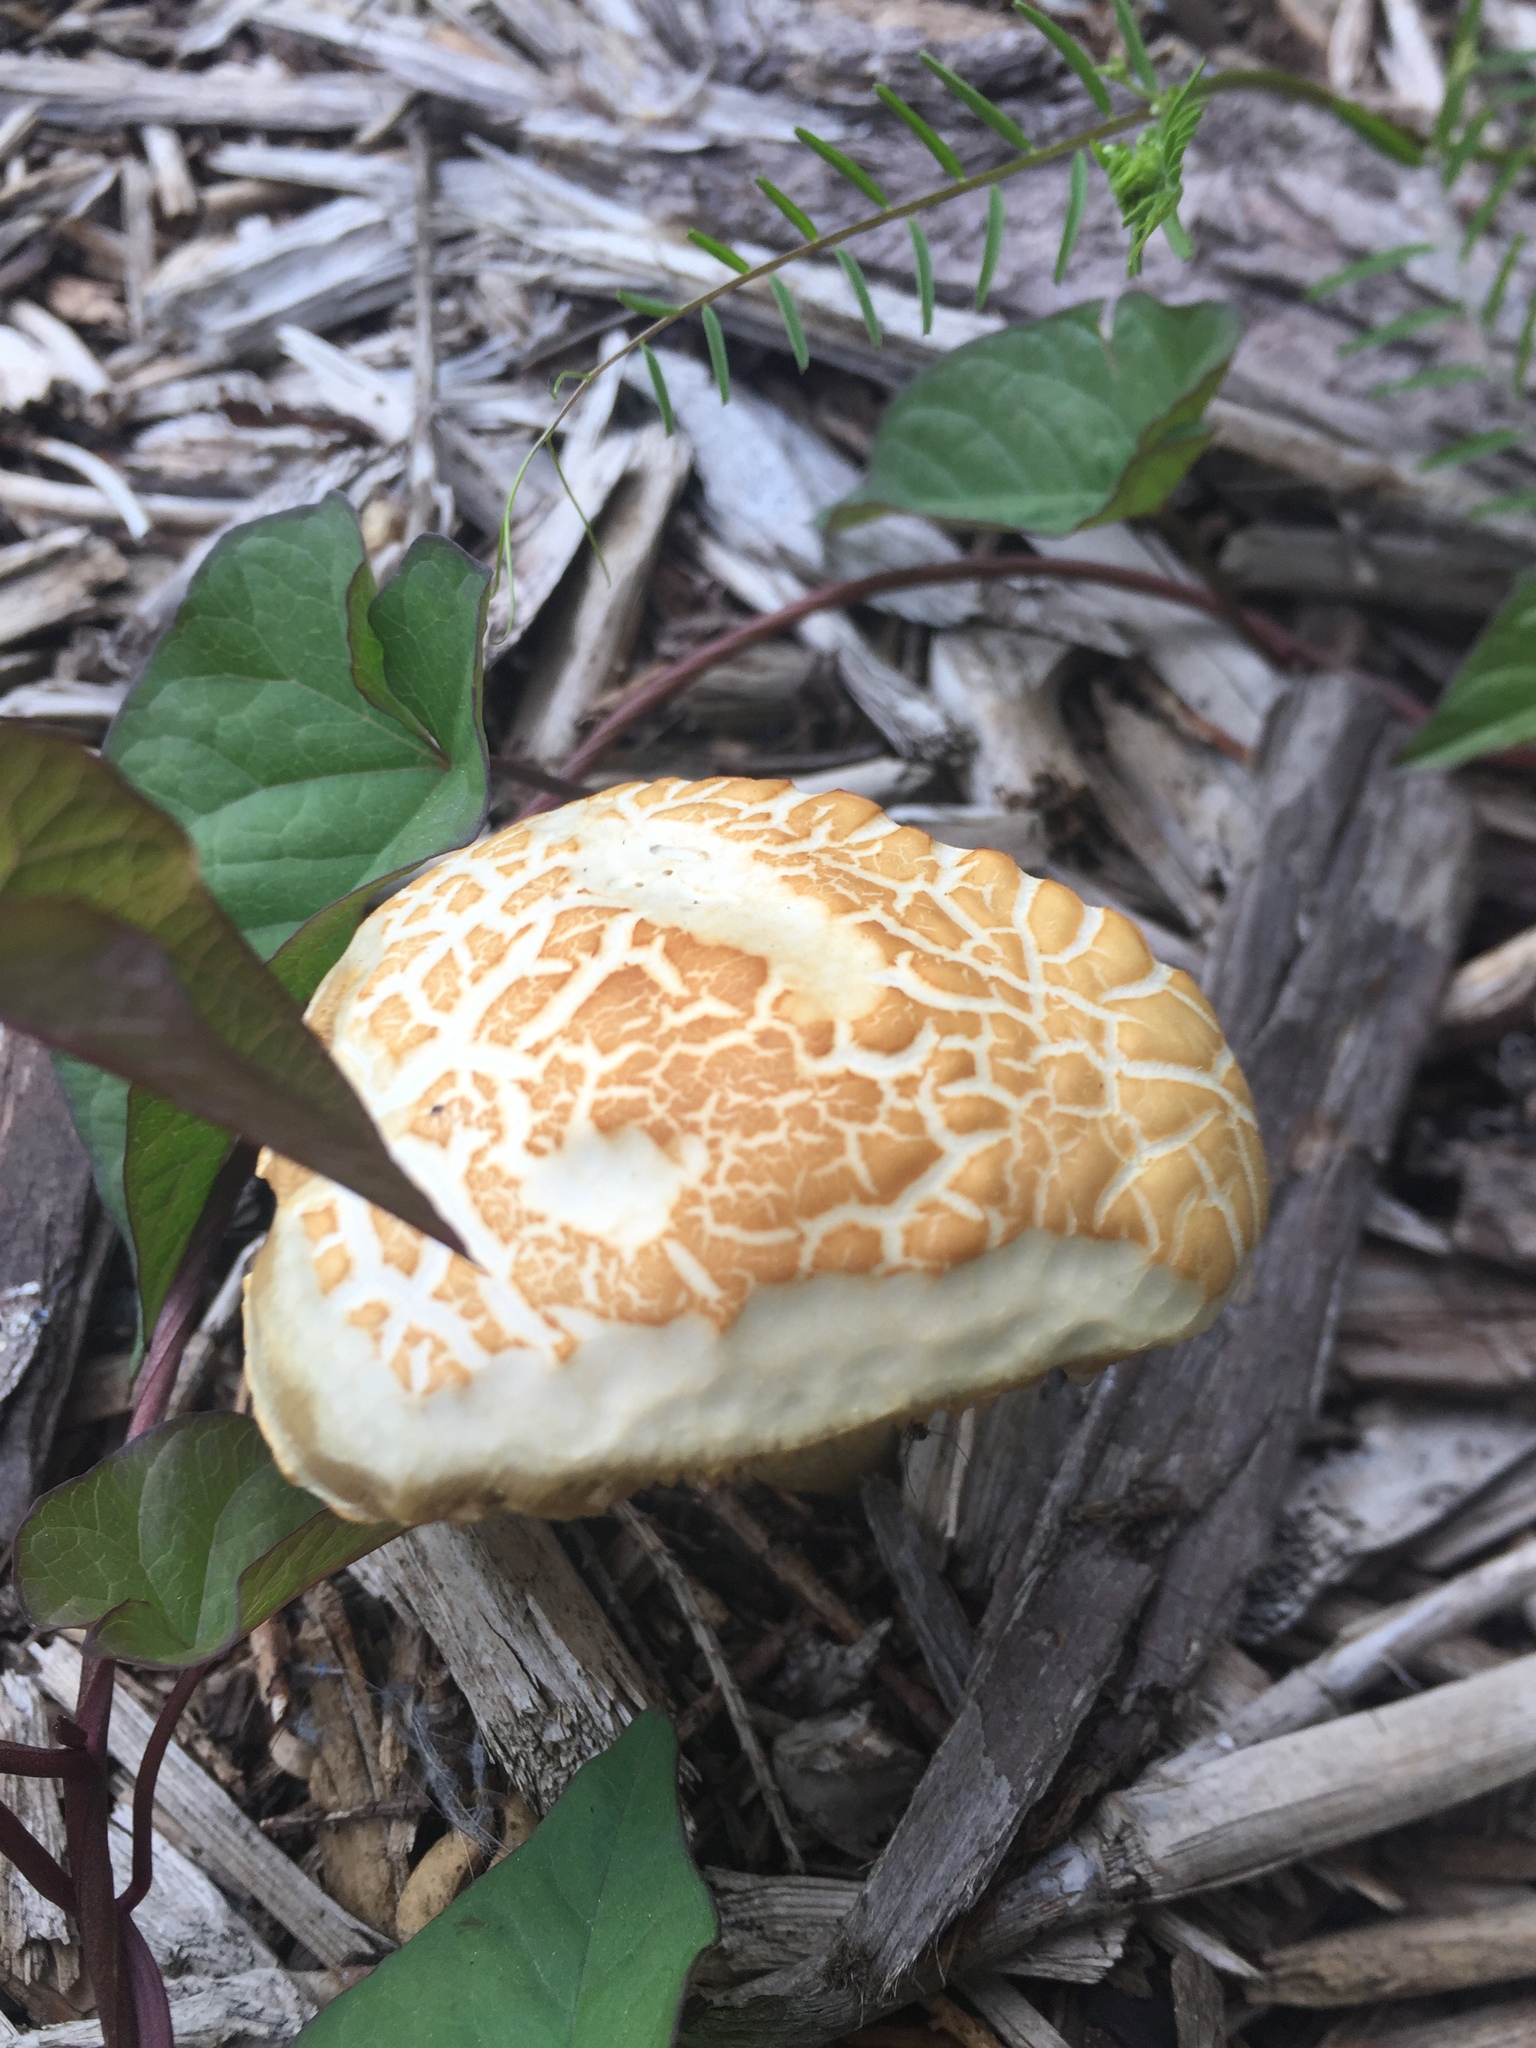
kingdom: Fungi
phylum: Basidiomycota
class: Agaricomycetes
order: Agaricales
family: Strophariaceae
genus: Agrocybe
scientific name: Agrocybe praecox
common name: Spring fieldcap
